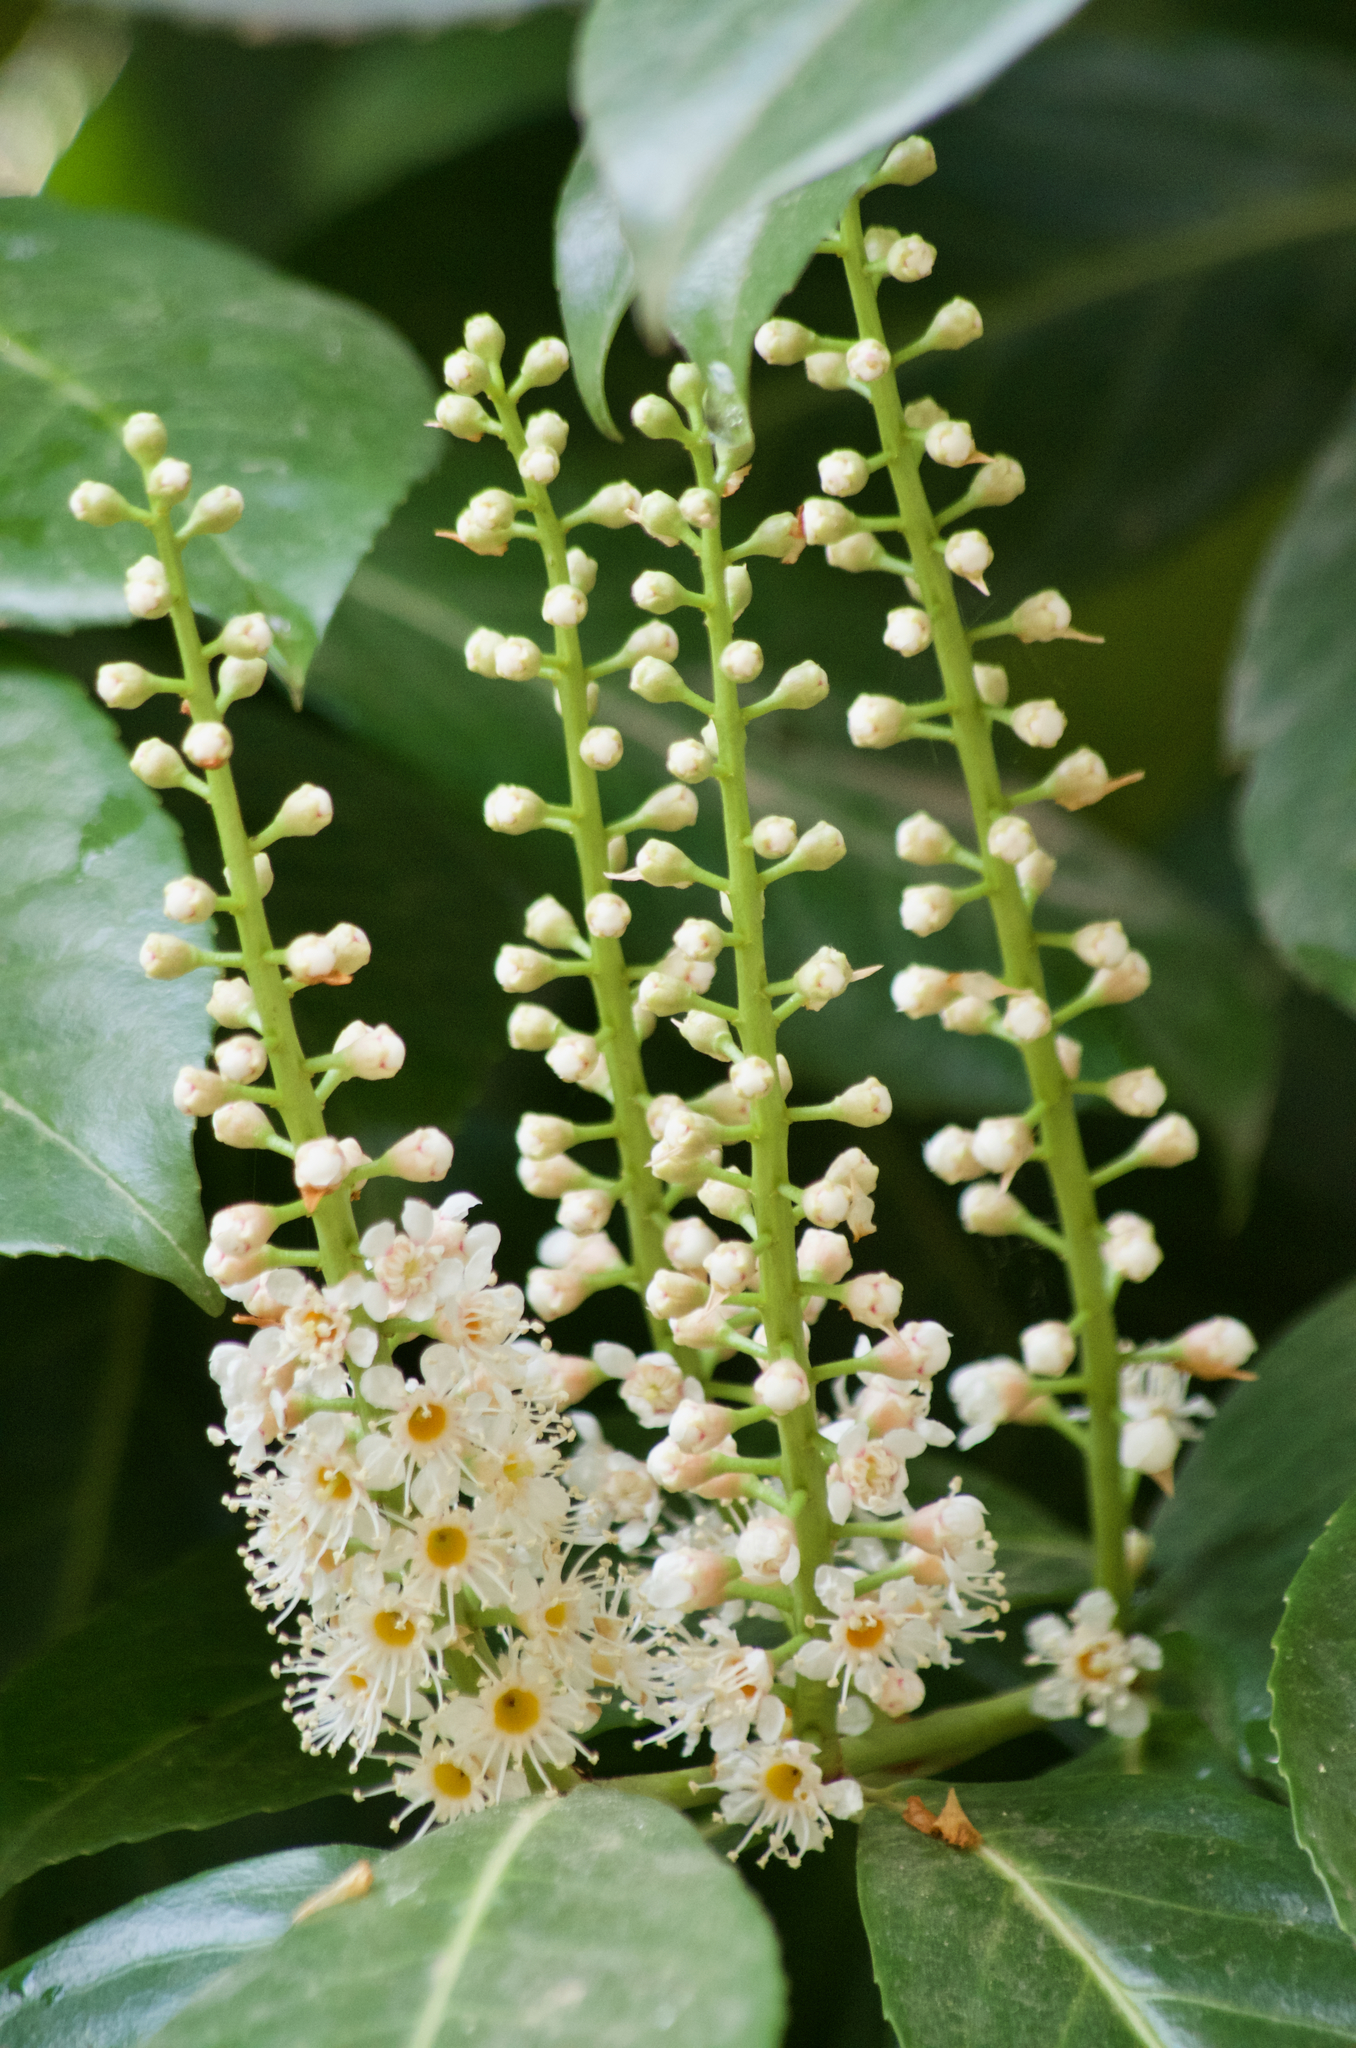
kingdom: Plantae
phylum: Tracheophyta
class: Magnoliopsida
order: Rosales
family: Rosaceae
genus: Prunus
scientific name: Prunus laurocerasus
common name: Cherry laurel
